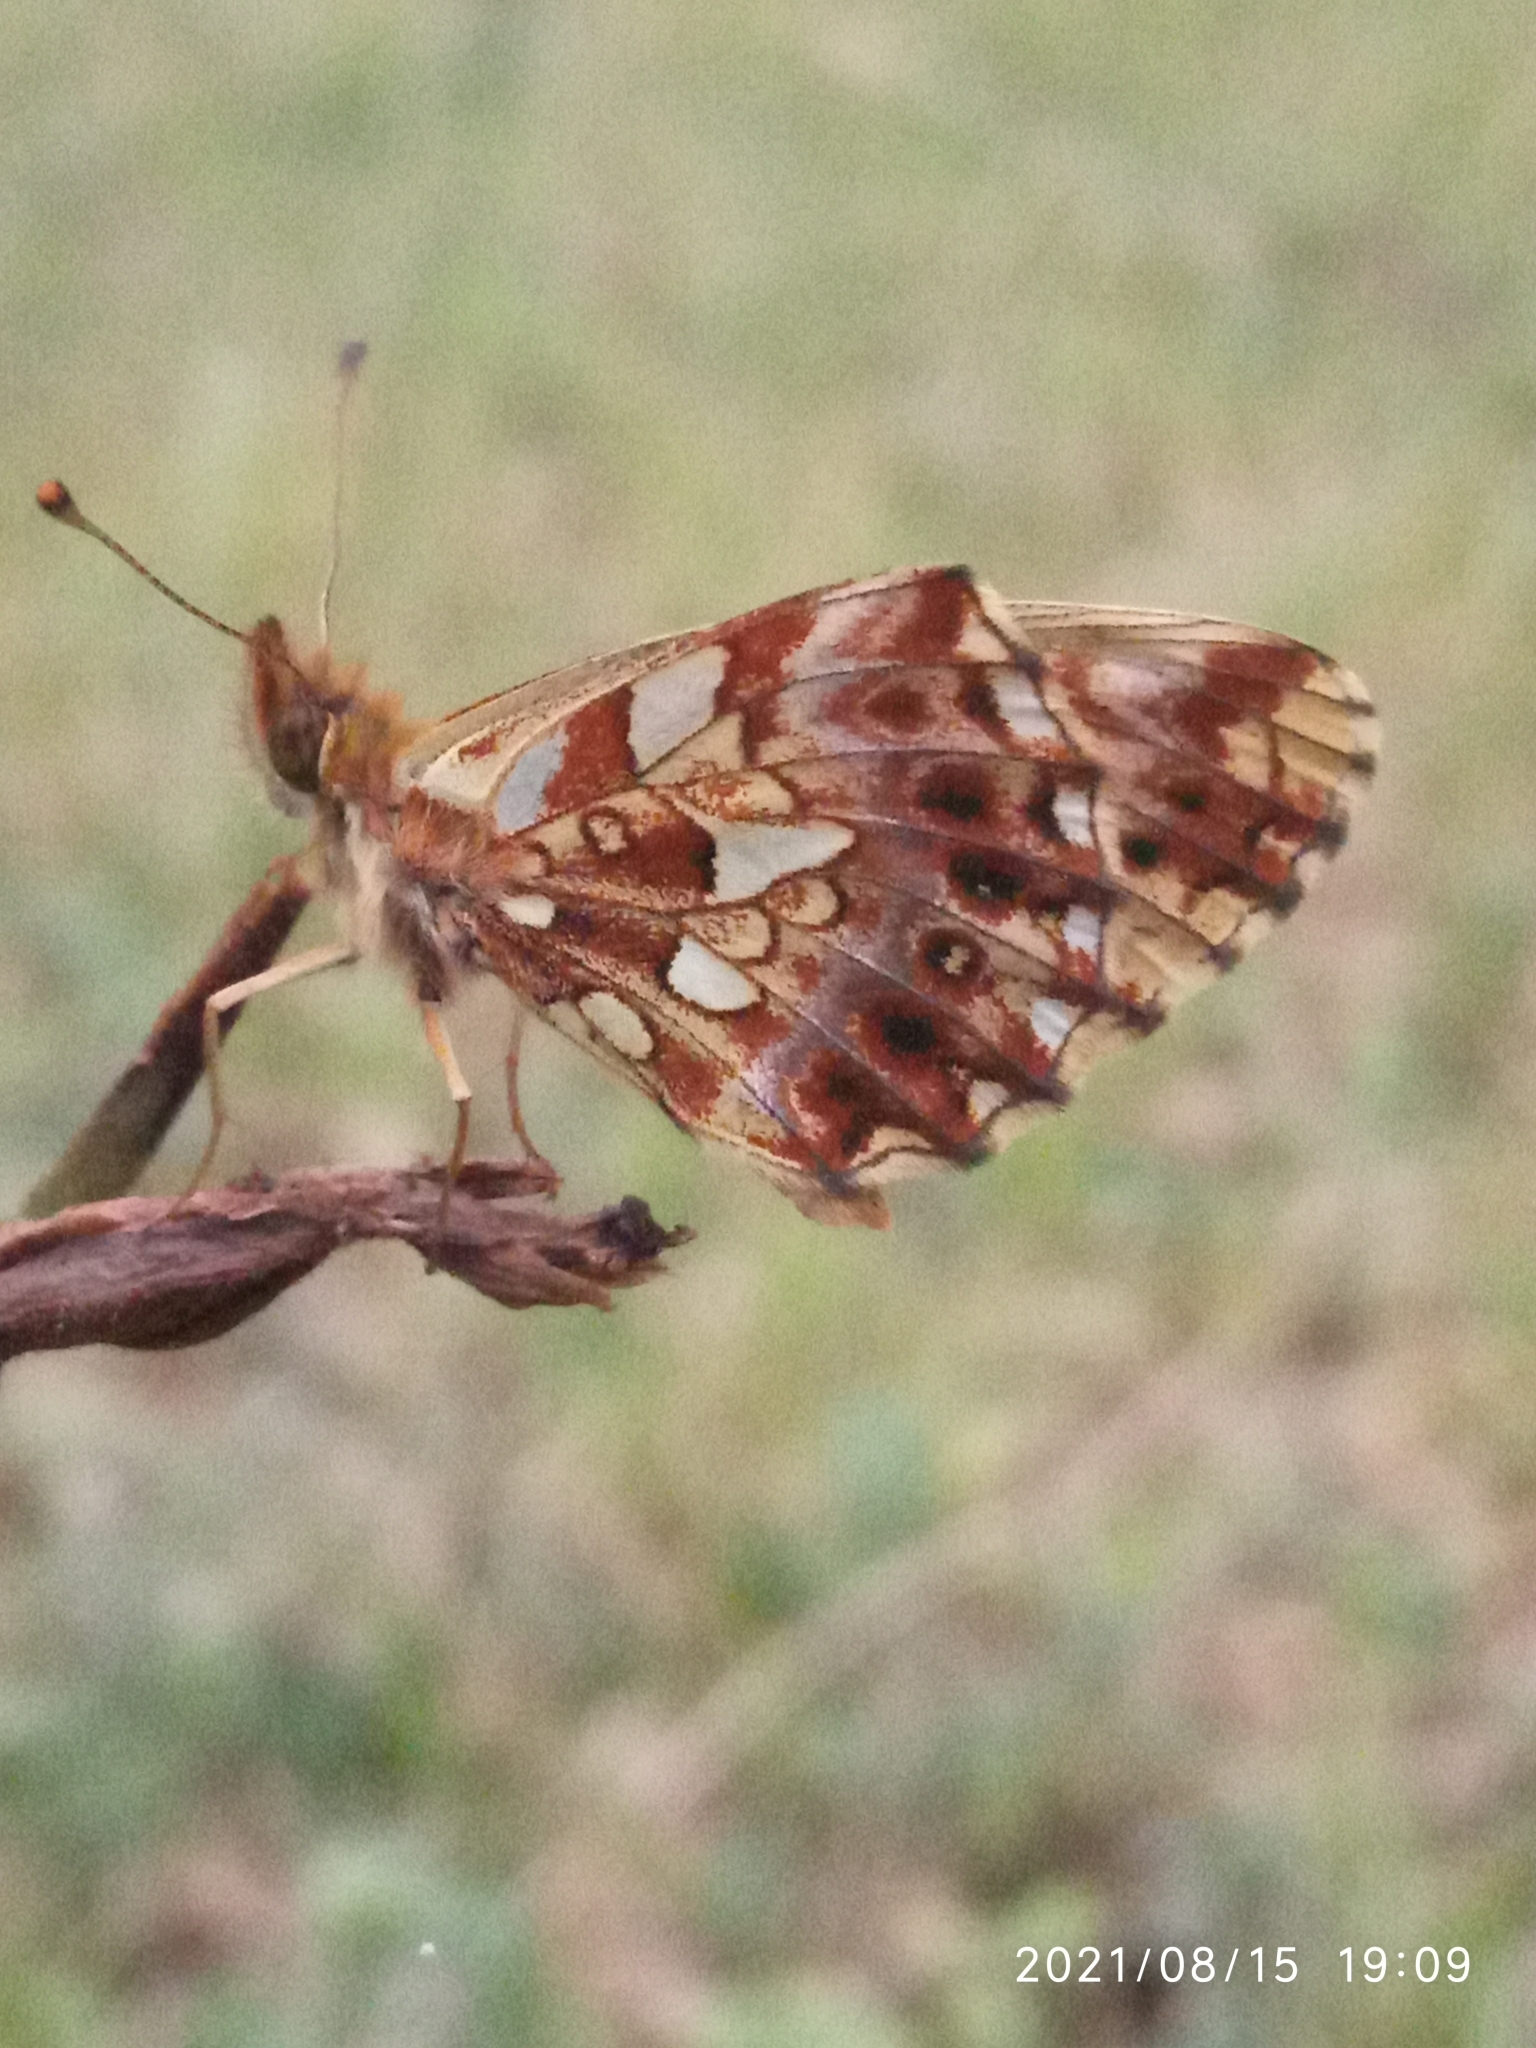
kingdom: Animalia
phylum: Arthropoda
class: Insecta
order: Lepidoptera
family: Nymphalidae
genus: Boloria
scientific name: Boloria dia
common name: Weaver's fritillary
